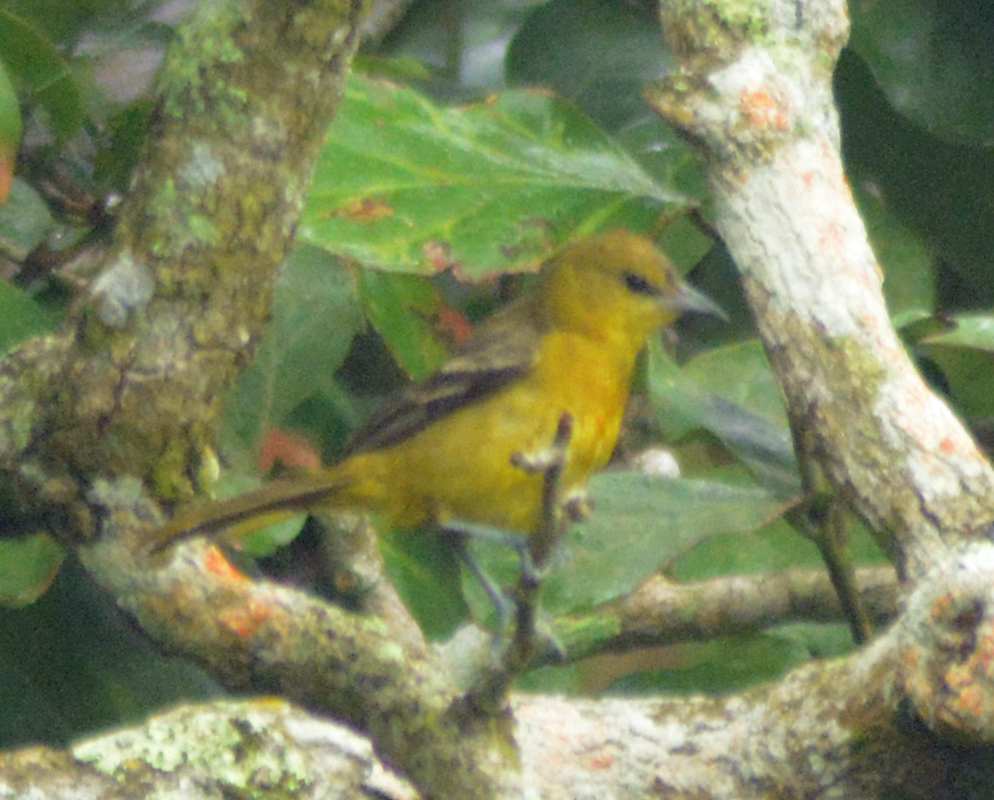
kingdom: Animalia
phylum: Chordata
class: Aves
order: Passeriformes
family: Icteridae
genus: Icterus
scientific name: Icterus spurius
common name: Orchard oriole
